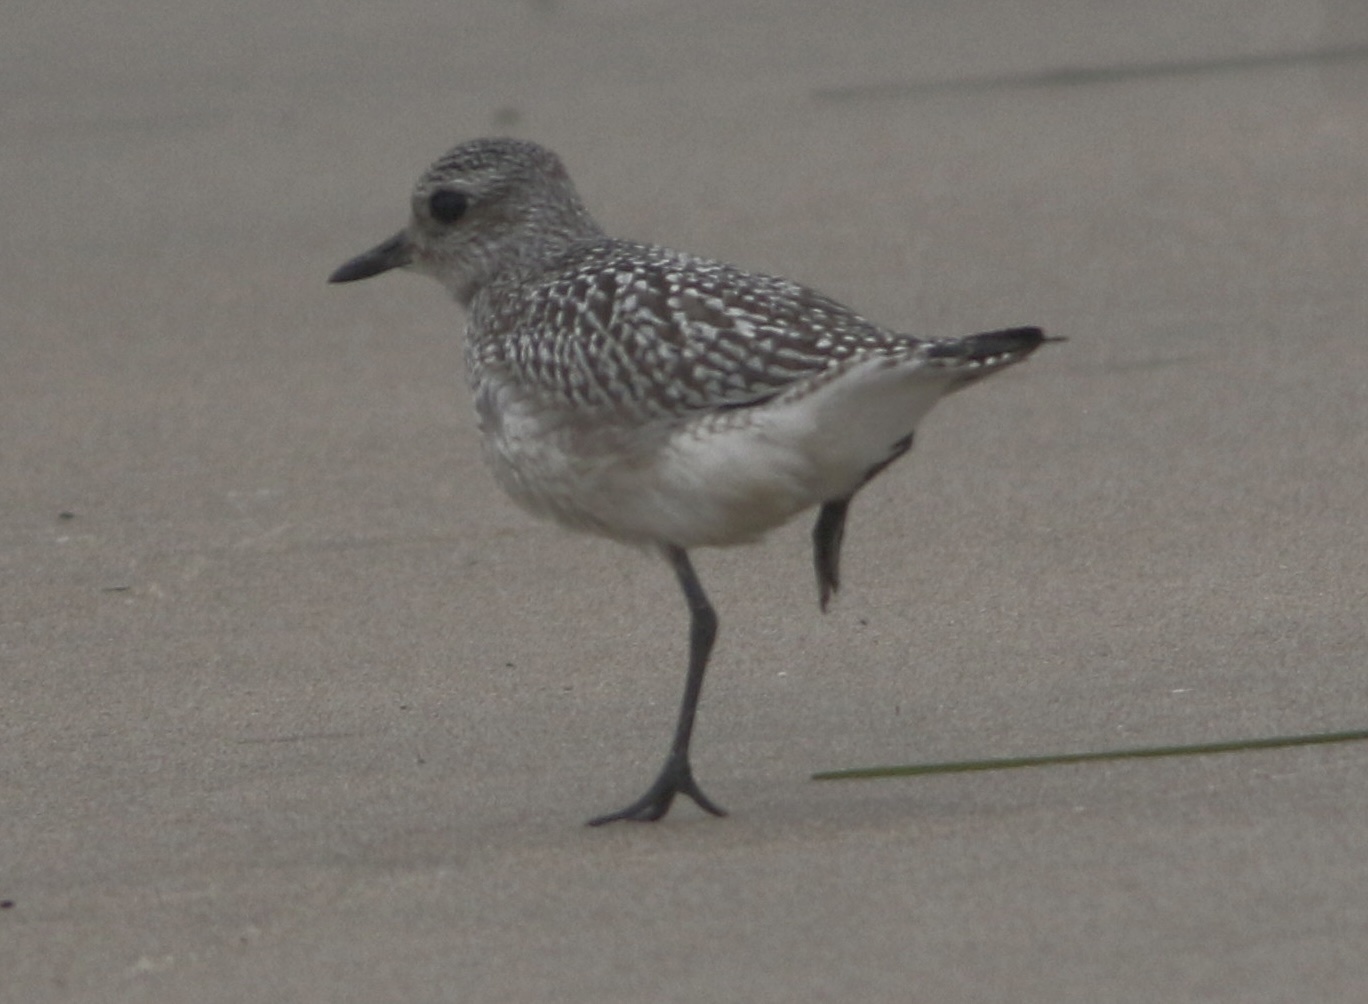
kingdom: Animalia
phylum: Chordata
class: Aves
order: Charadriiformes
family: Charadriidae
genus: Pluvialis
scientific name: Pluvialis squatarola
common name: Grey plover
